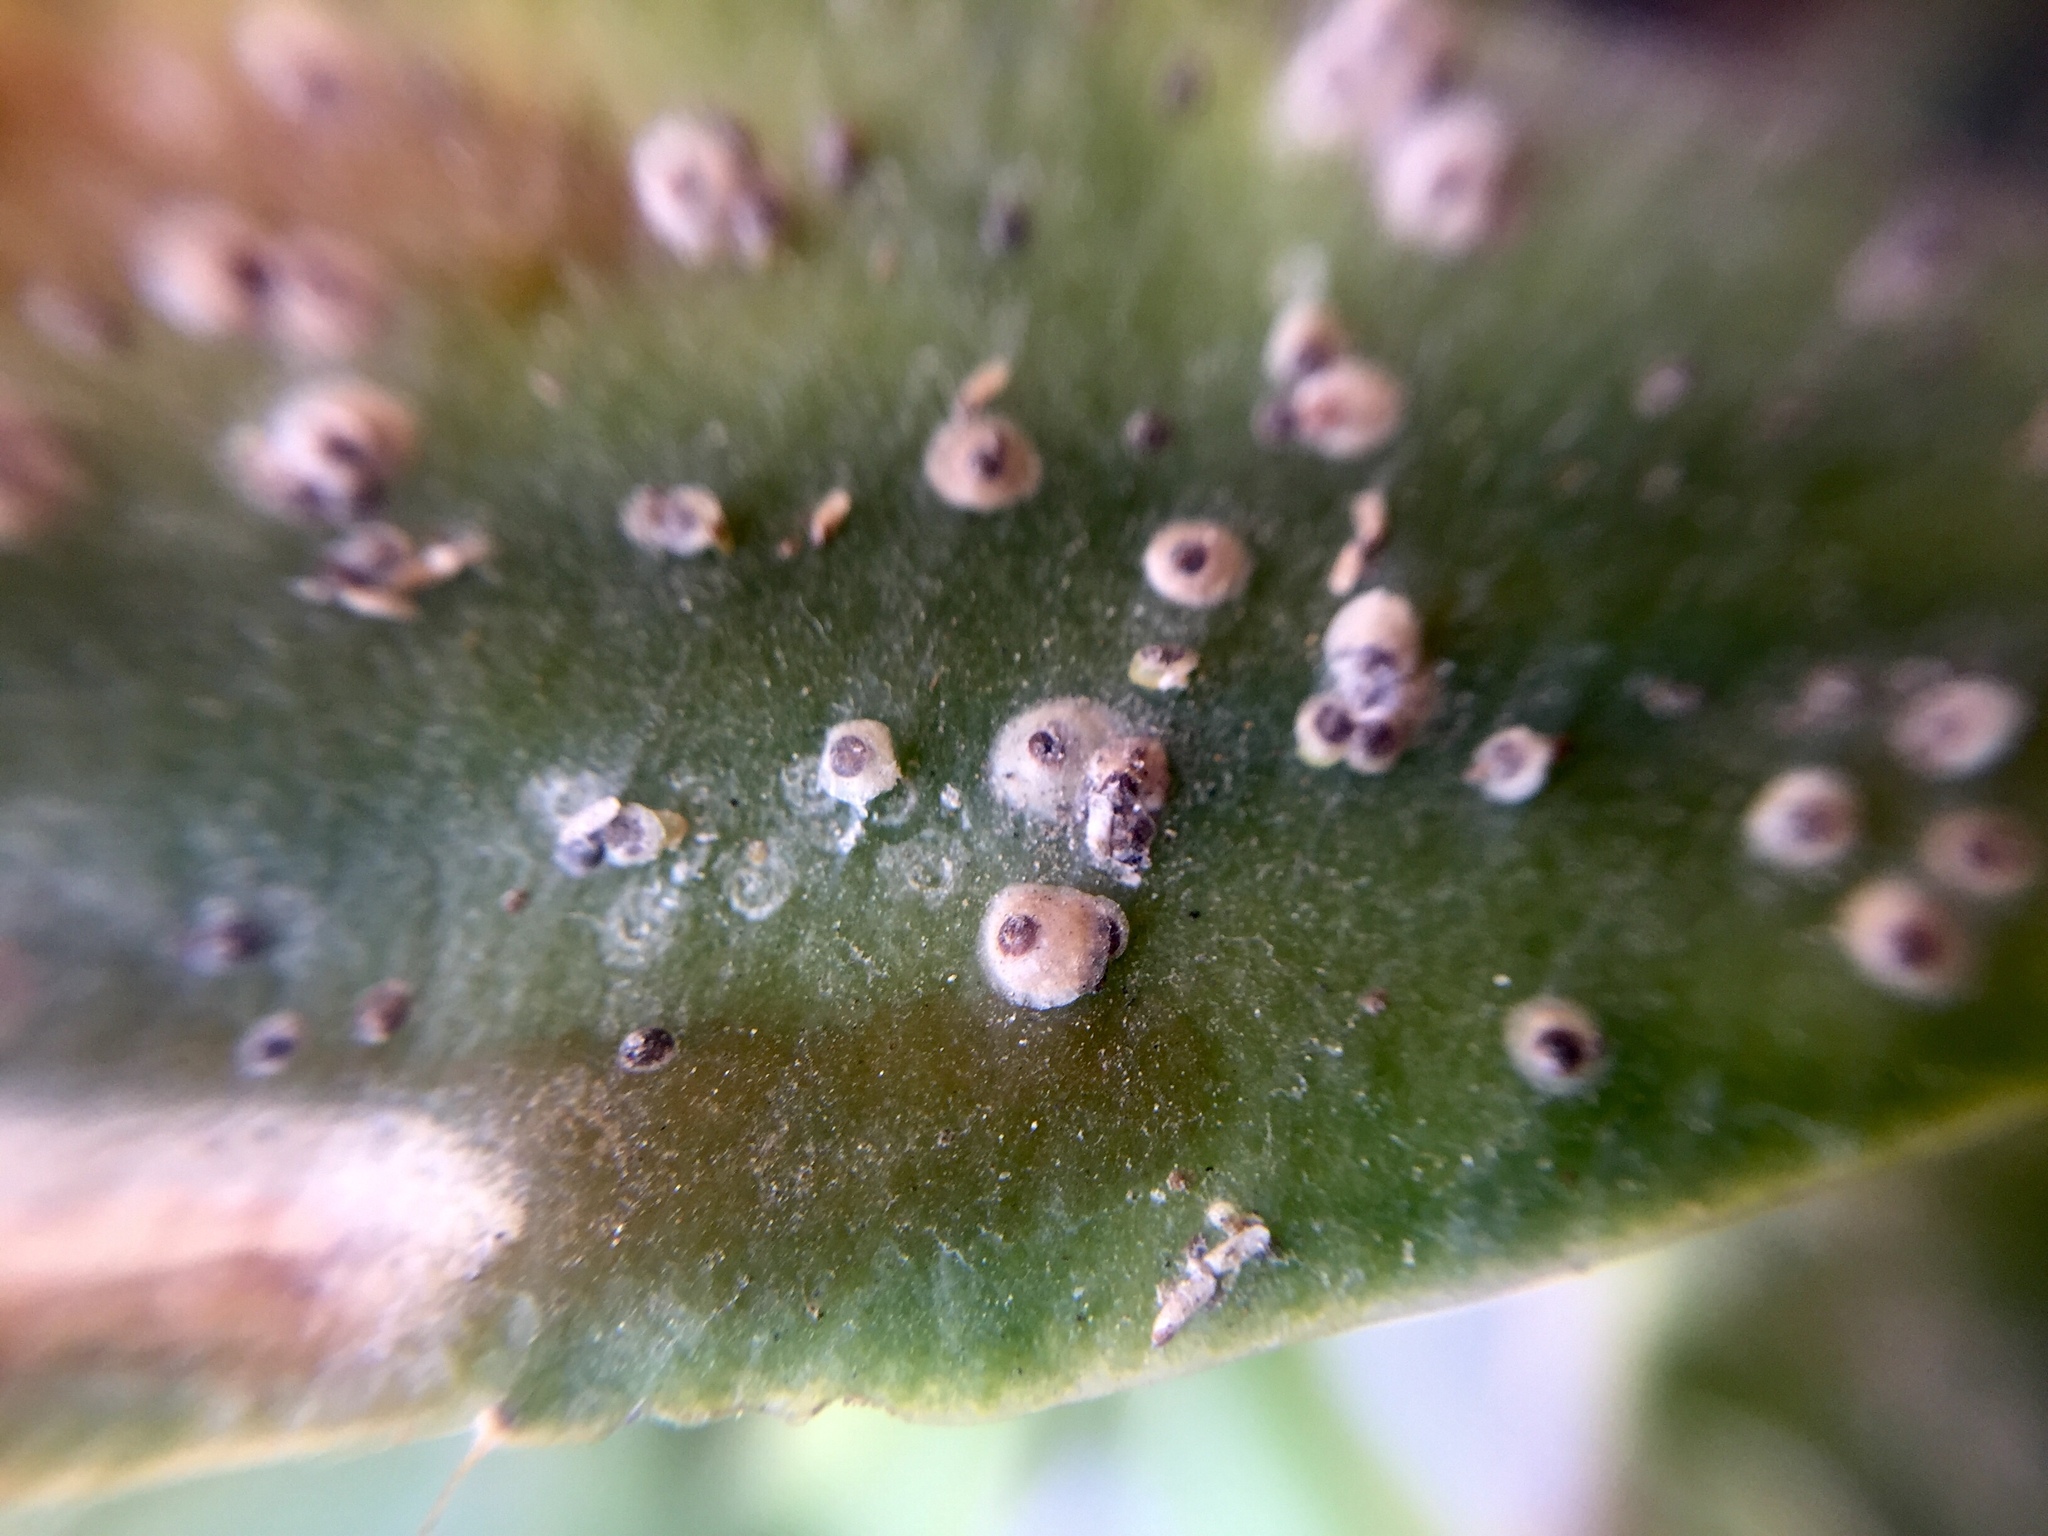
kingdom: Animalia
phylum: Arthropoda
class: Insecta
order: Hemiptera
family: Diaspididae
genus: Diaspis
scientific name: Diaspis echinocacti
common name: Cactus scale
